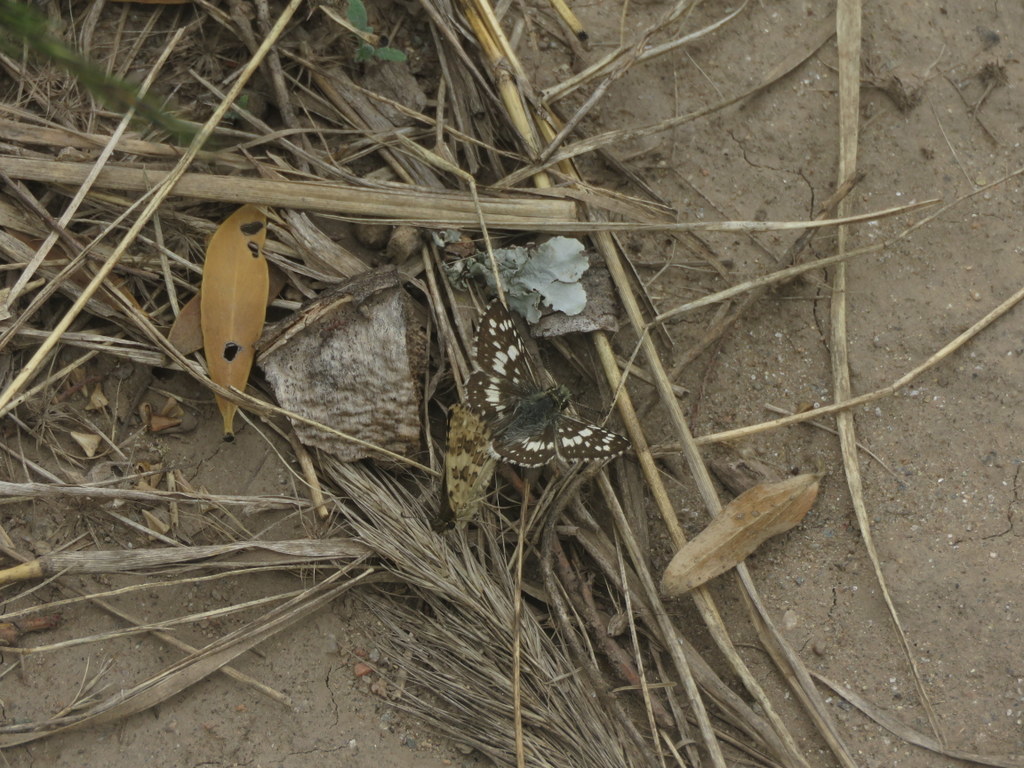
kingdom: Animalia
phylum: Arthropoda
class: Insecta
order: Lepidoptera
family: Hesperiidae
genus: Burnsius
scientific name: Burnsius orcynoides
